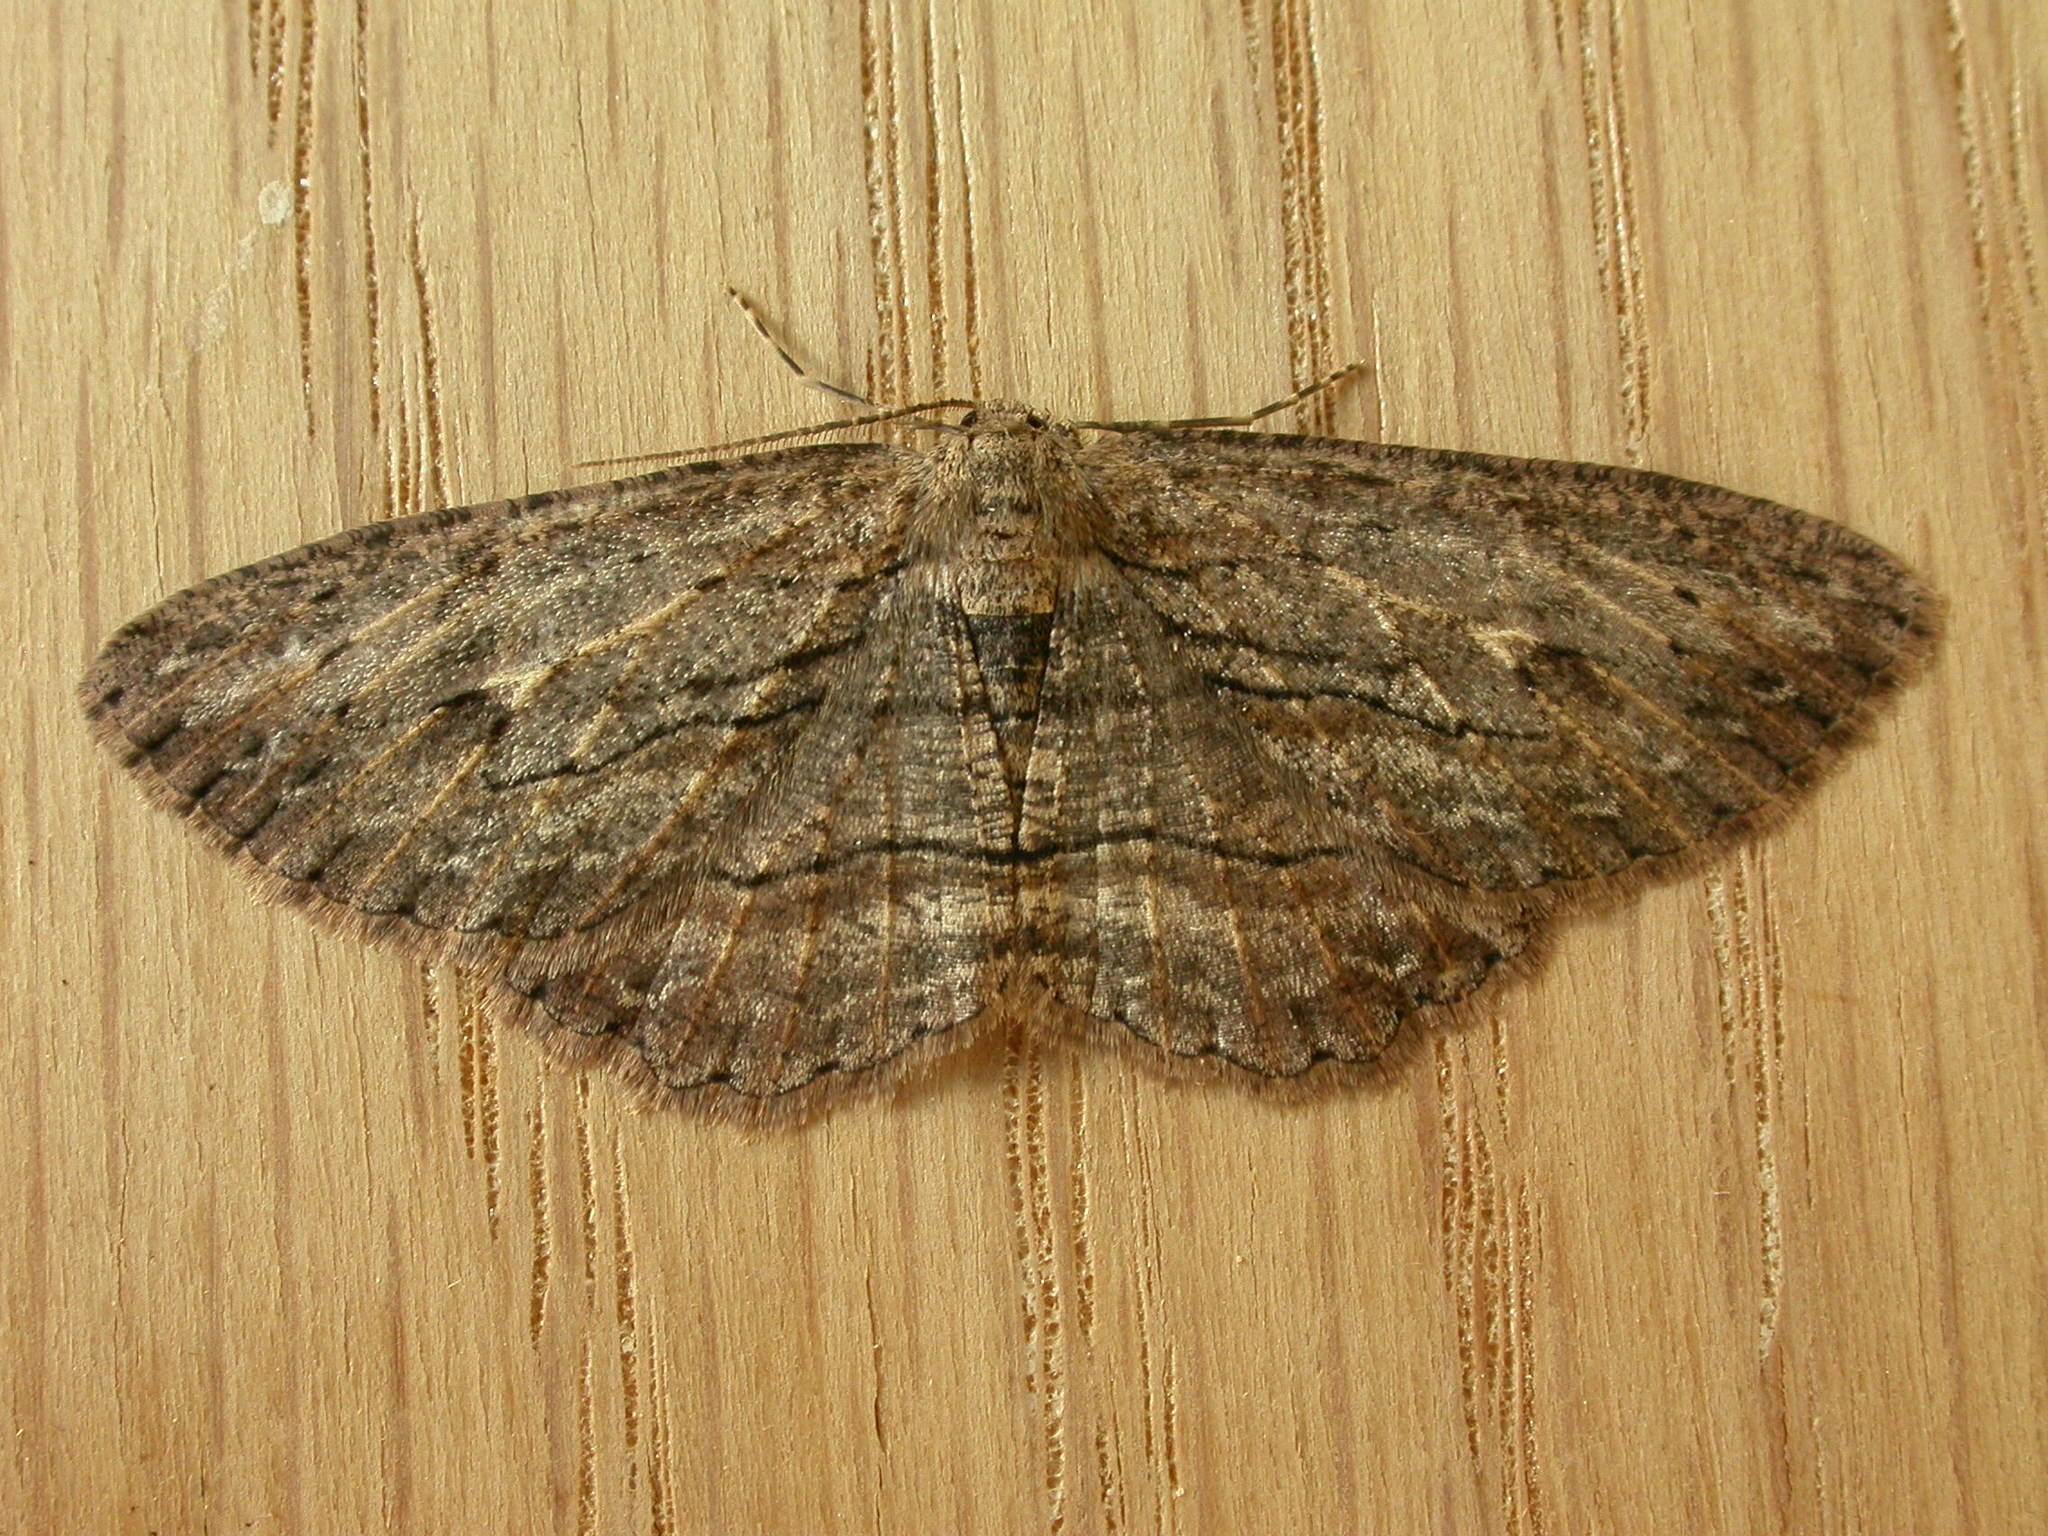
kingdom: Animalia
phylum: Arthropoda
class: Insecta
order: Lepidoptera
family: Geometridae
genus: Ectropis
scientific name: Ectropis excursaria
